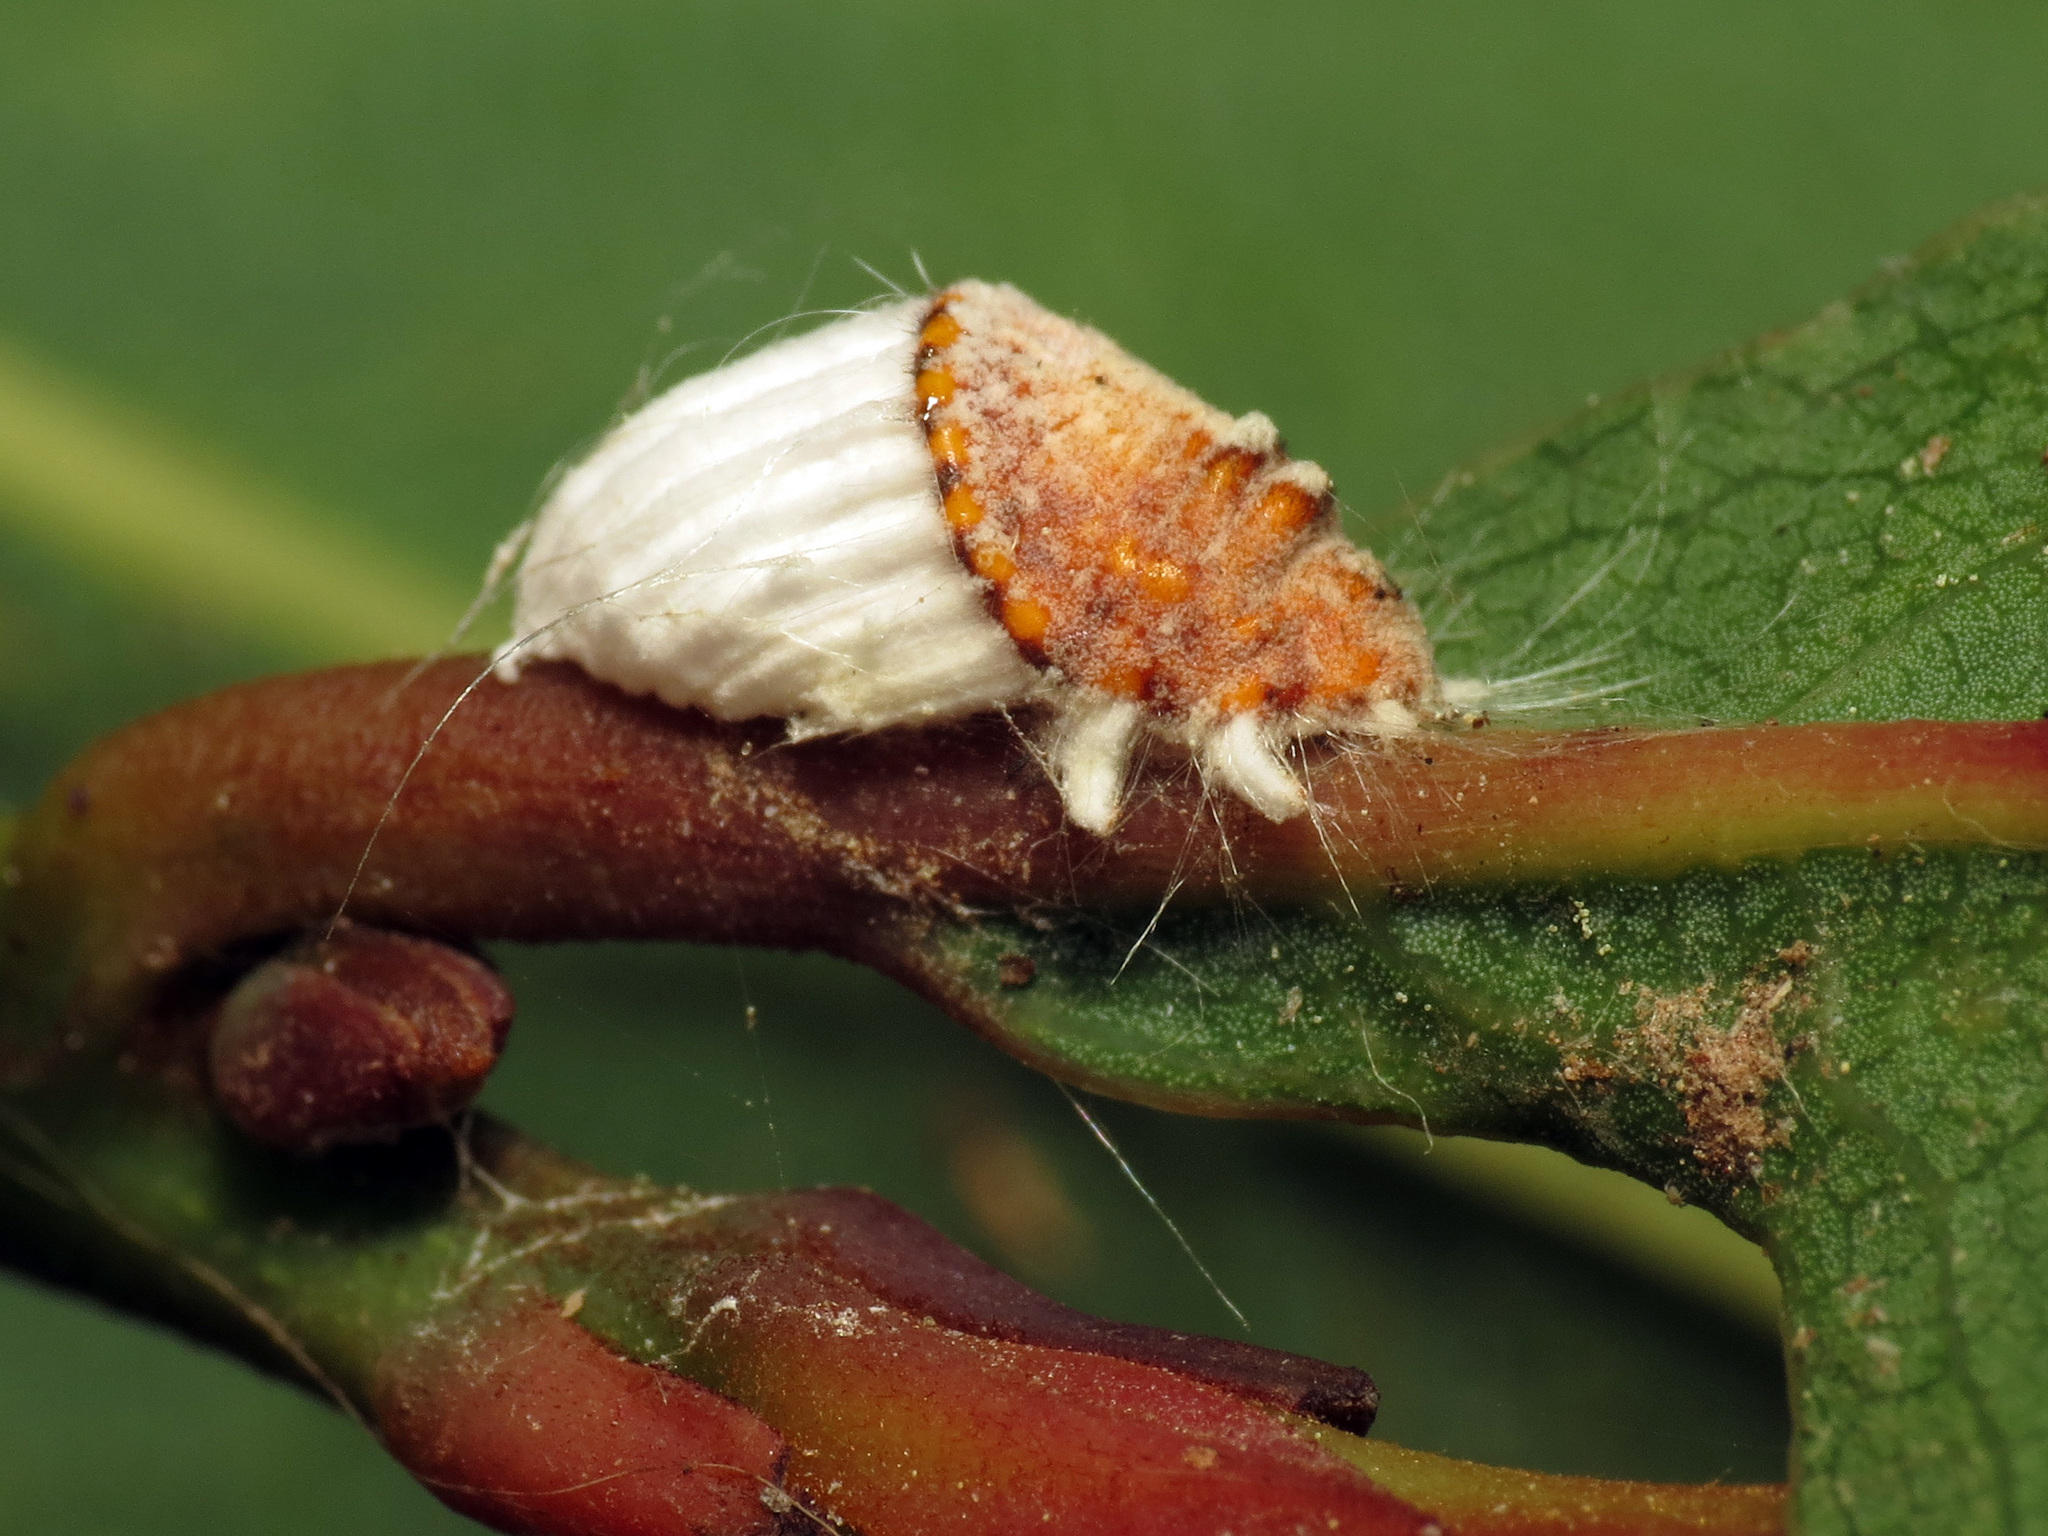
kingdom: Animalia
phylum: Arthropoda
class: Insecta
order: Hemiptera
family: Margarodidae
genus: Icerya
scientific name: Icerya purchasi
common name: Cottony cushion scale
